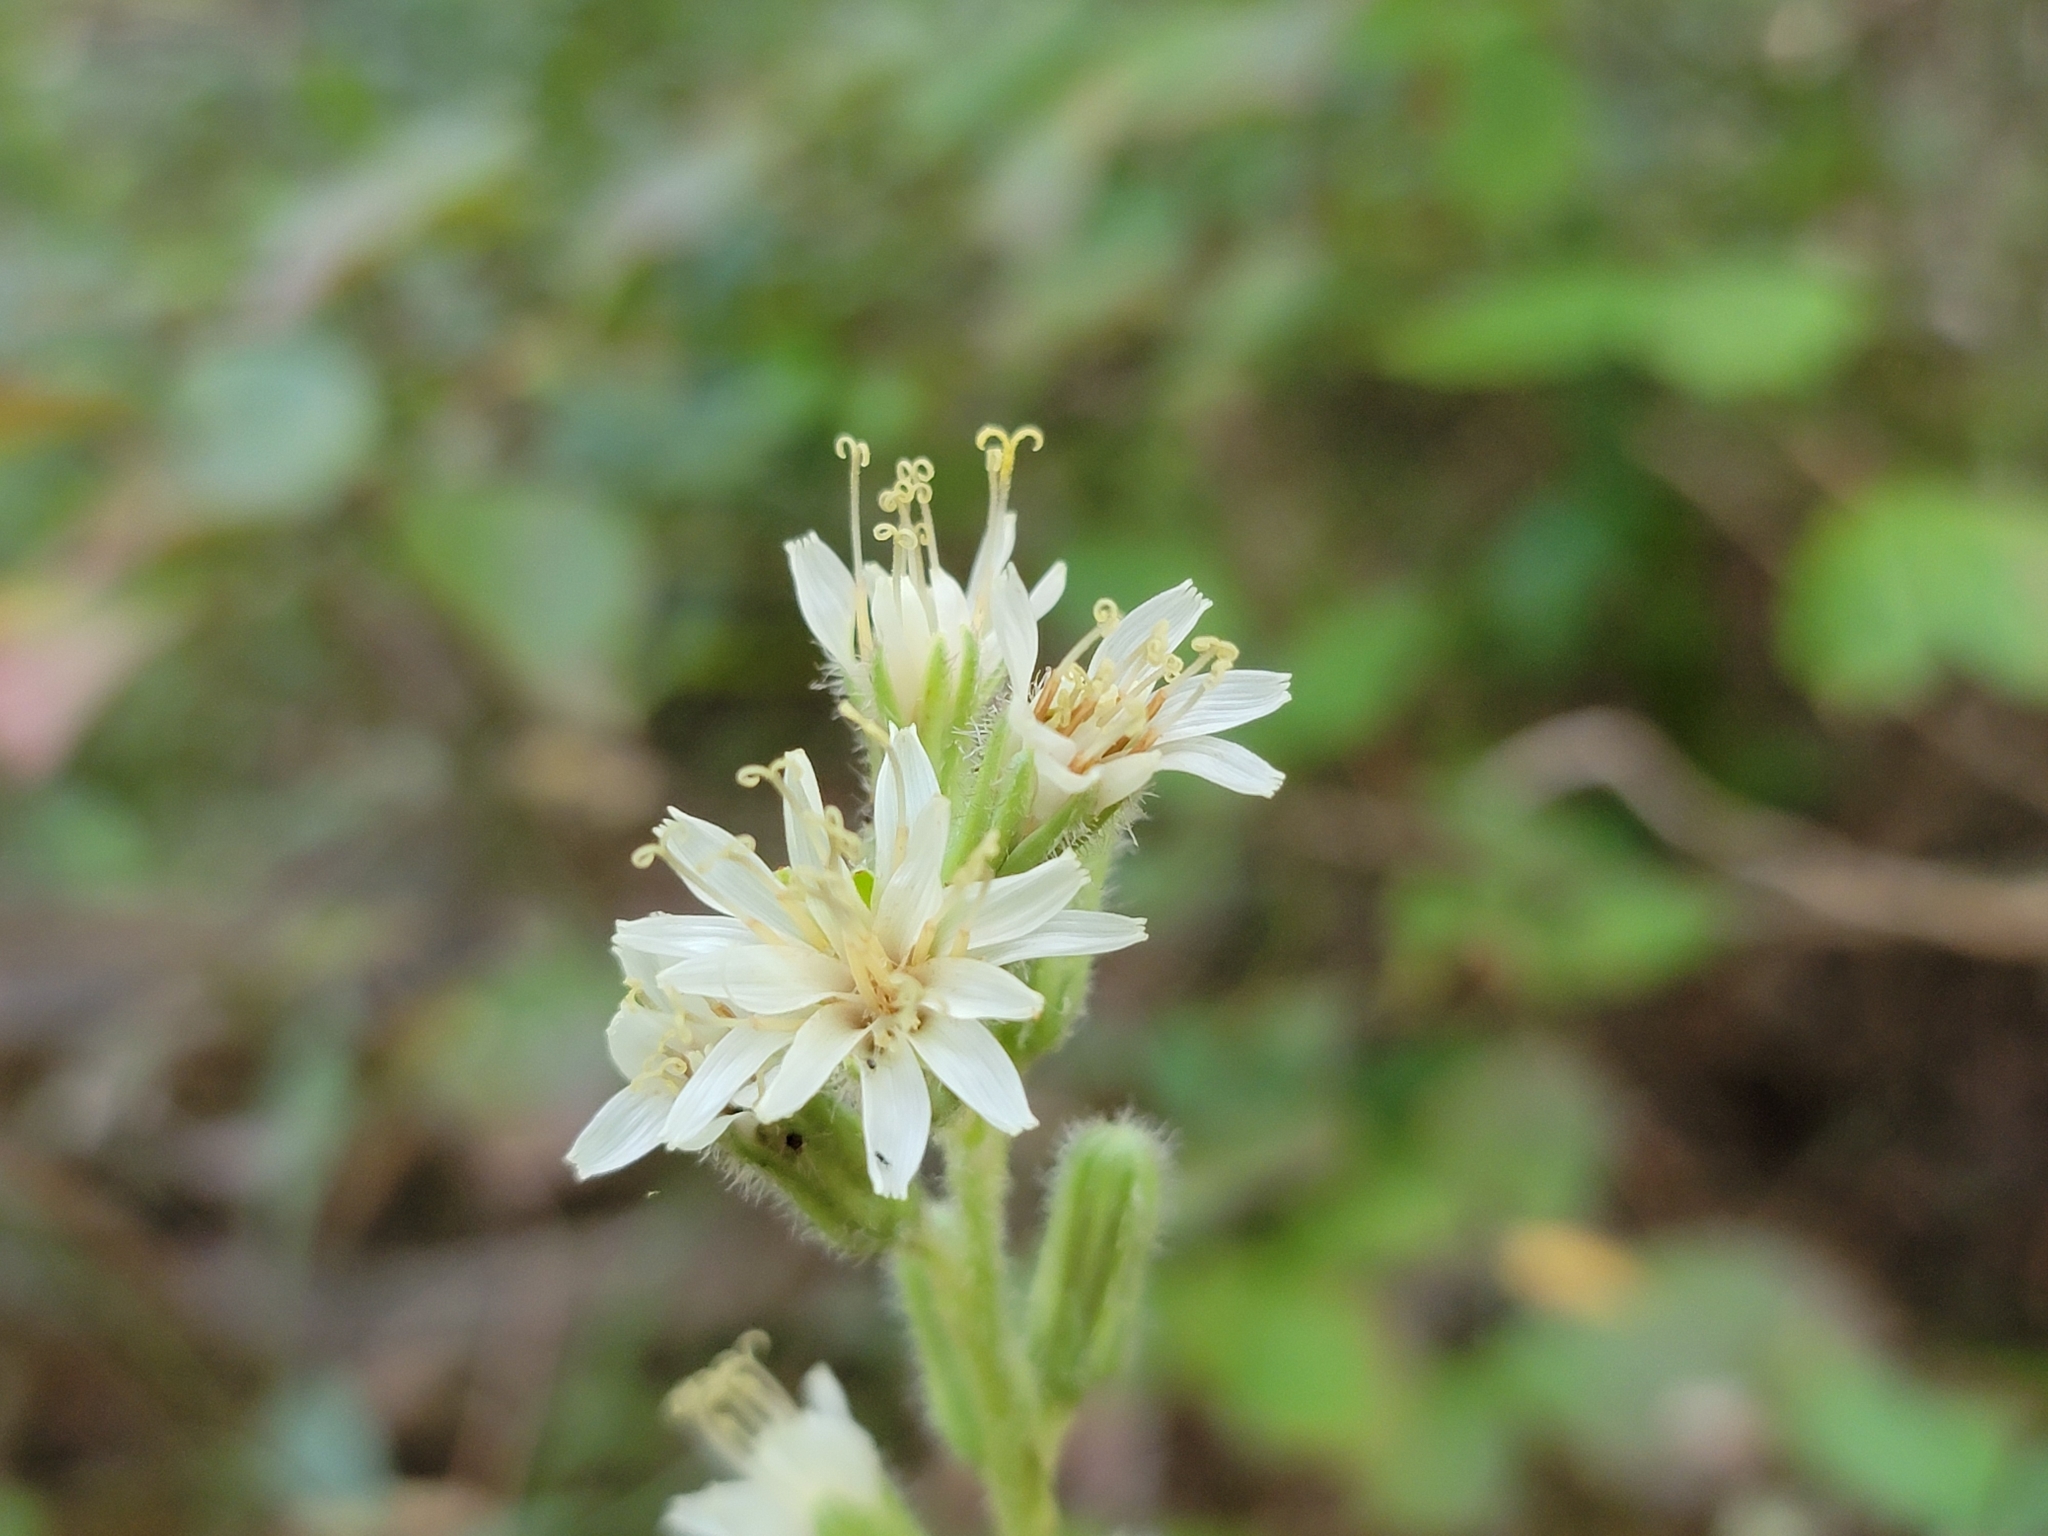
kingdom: Plantae
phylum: Tracheophyta
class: Magnoliopsida
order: Asterales
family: Asteraceae
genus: Nabalus
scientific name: Nabalus asper
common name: Rough rattlesnakeroot
